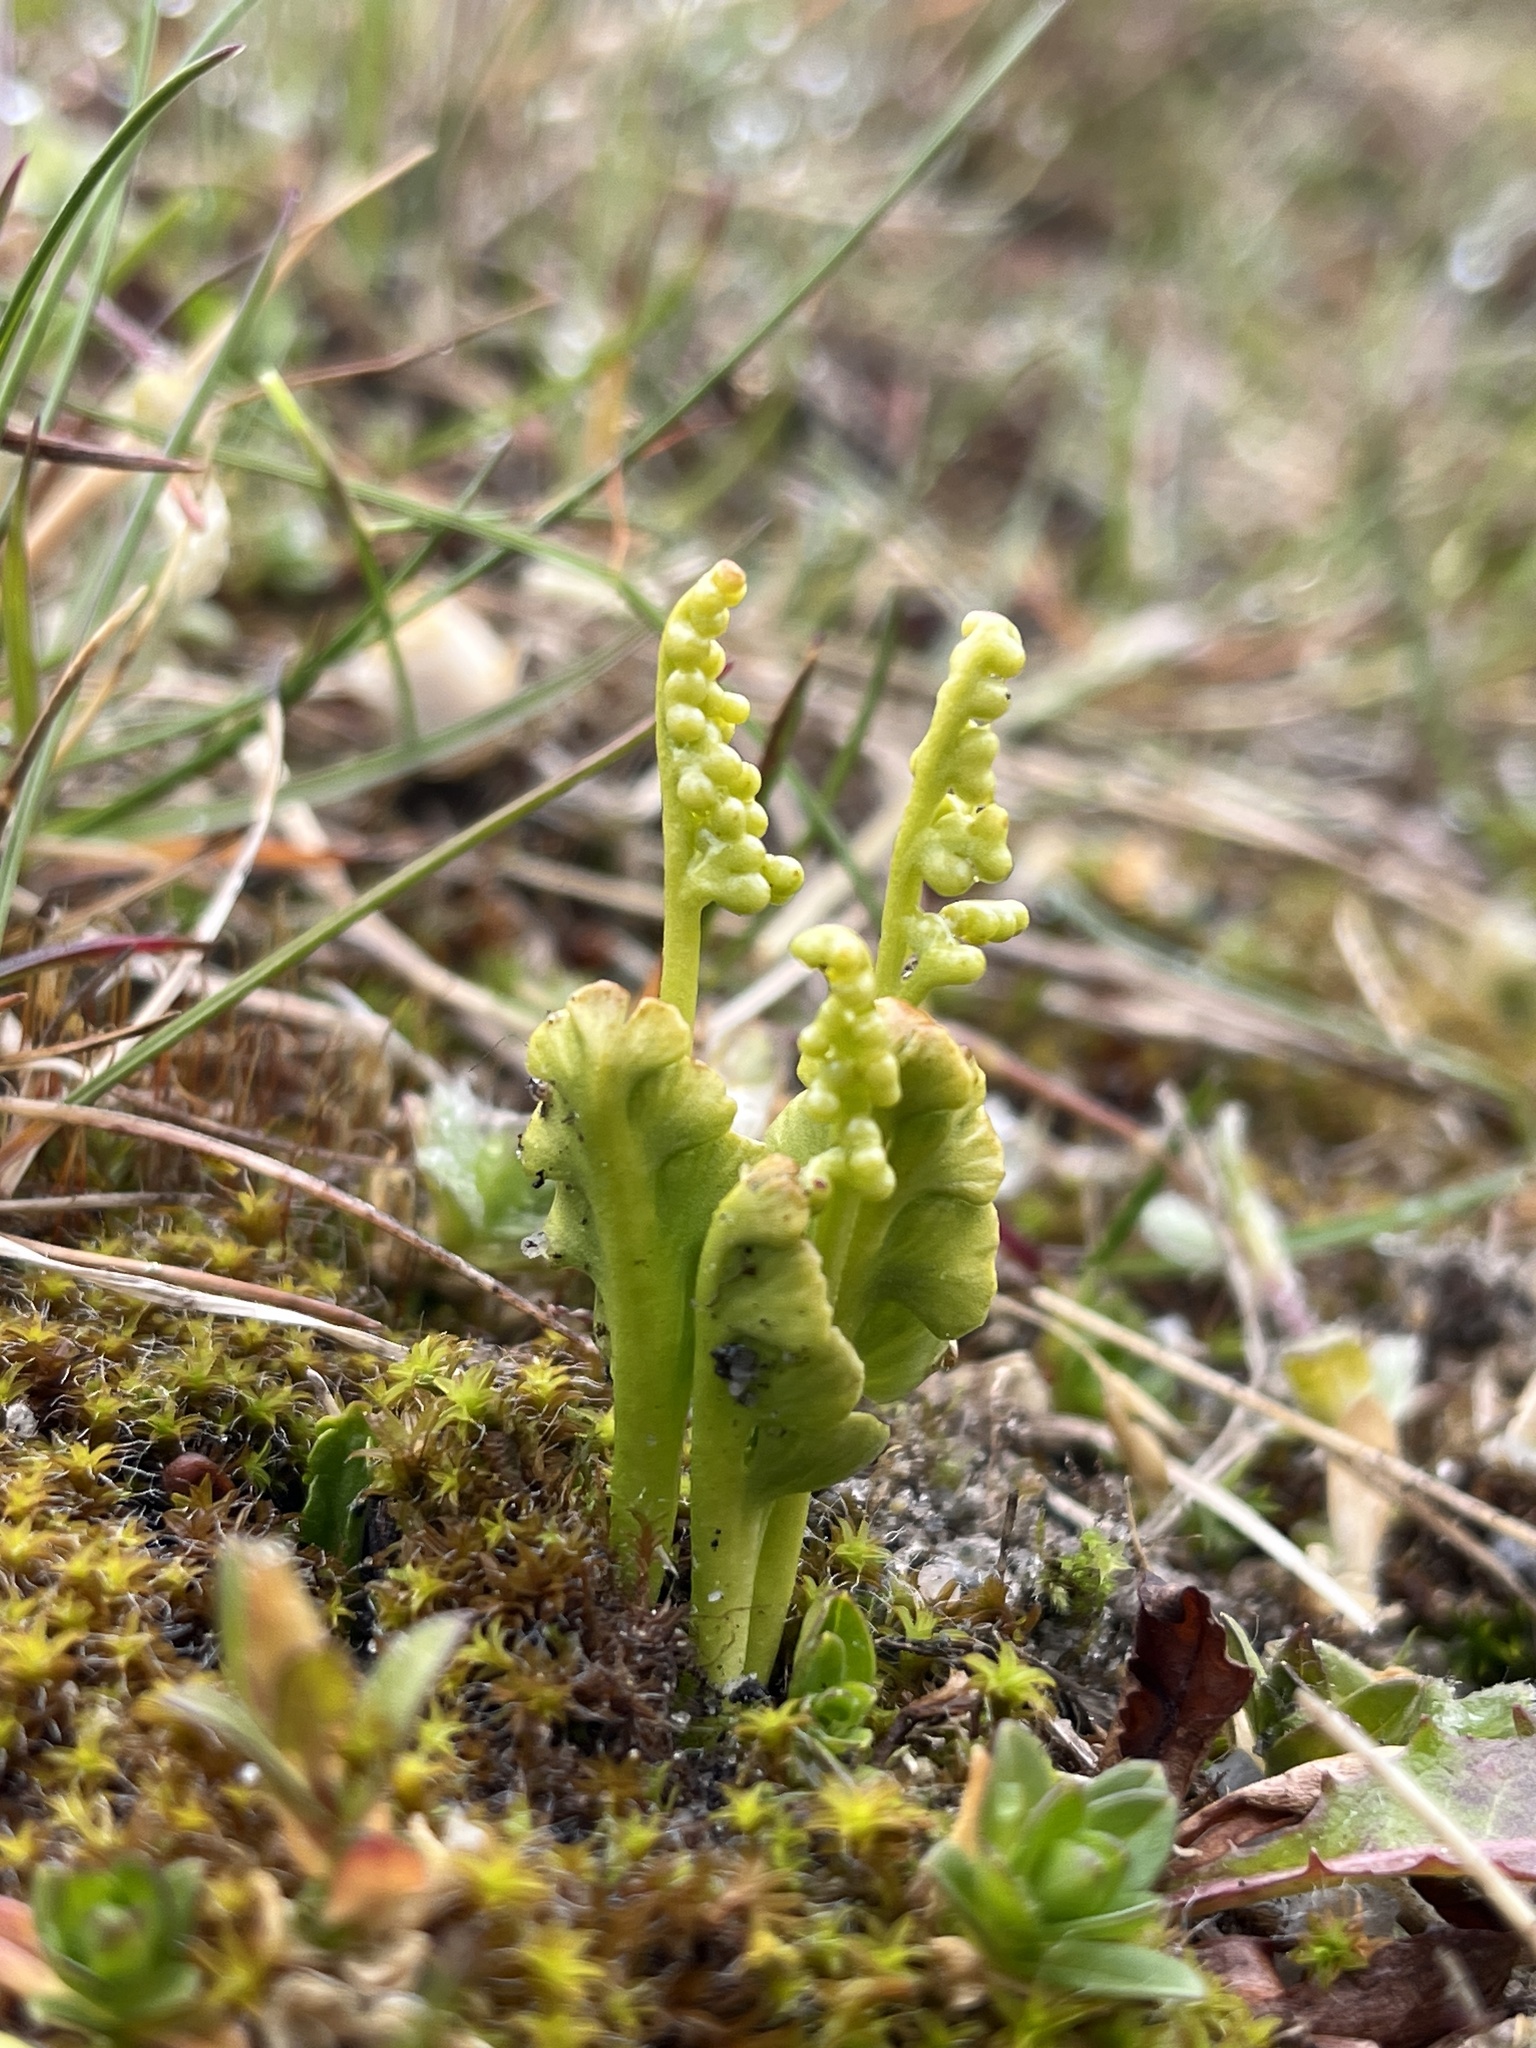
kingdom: Plantae
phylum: Tracheophyta
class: Polypodiopsida
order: Ophioglossales
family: Ophioglossaceae
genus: Botrychium
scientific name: Botrychium lunaria
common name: Moonwort
